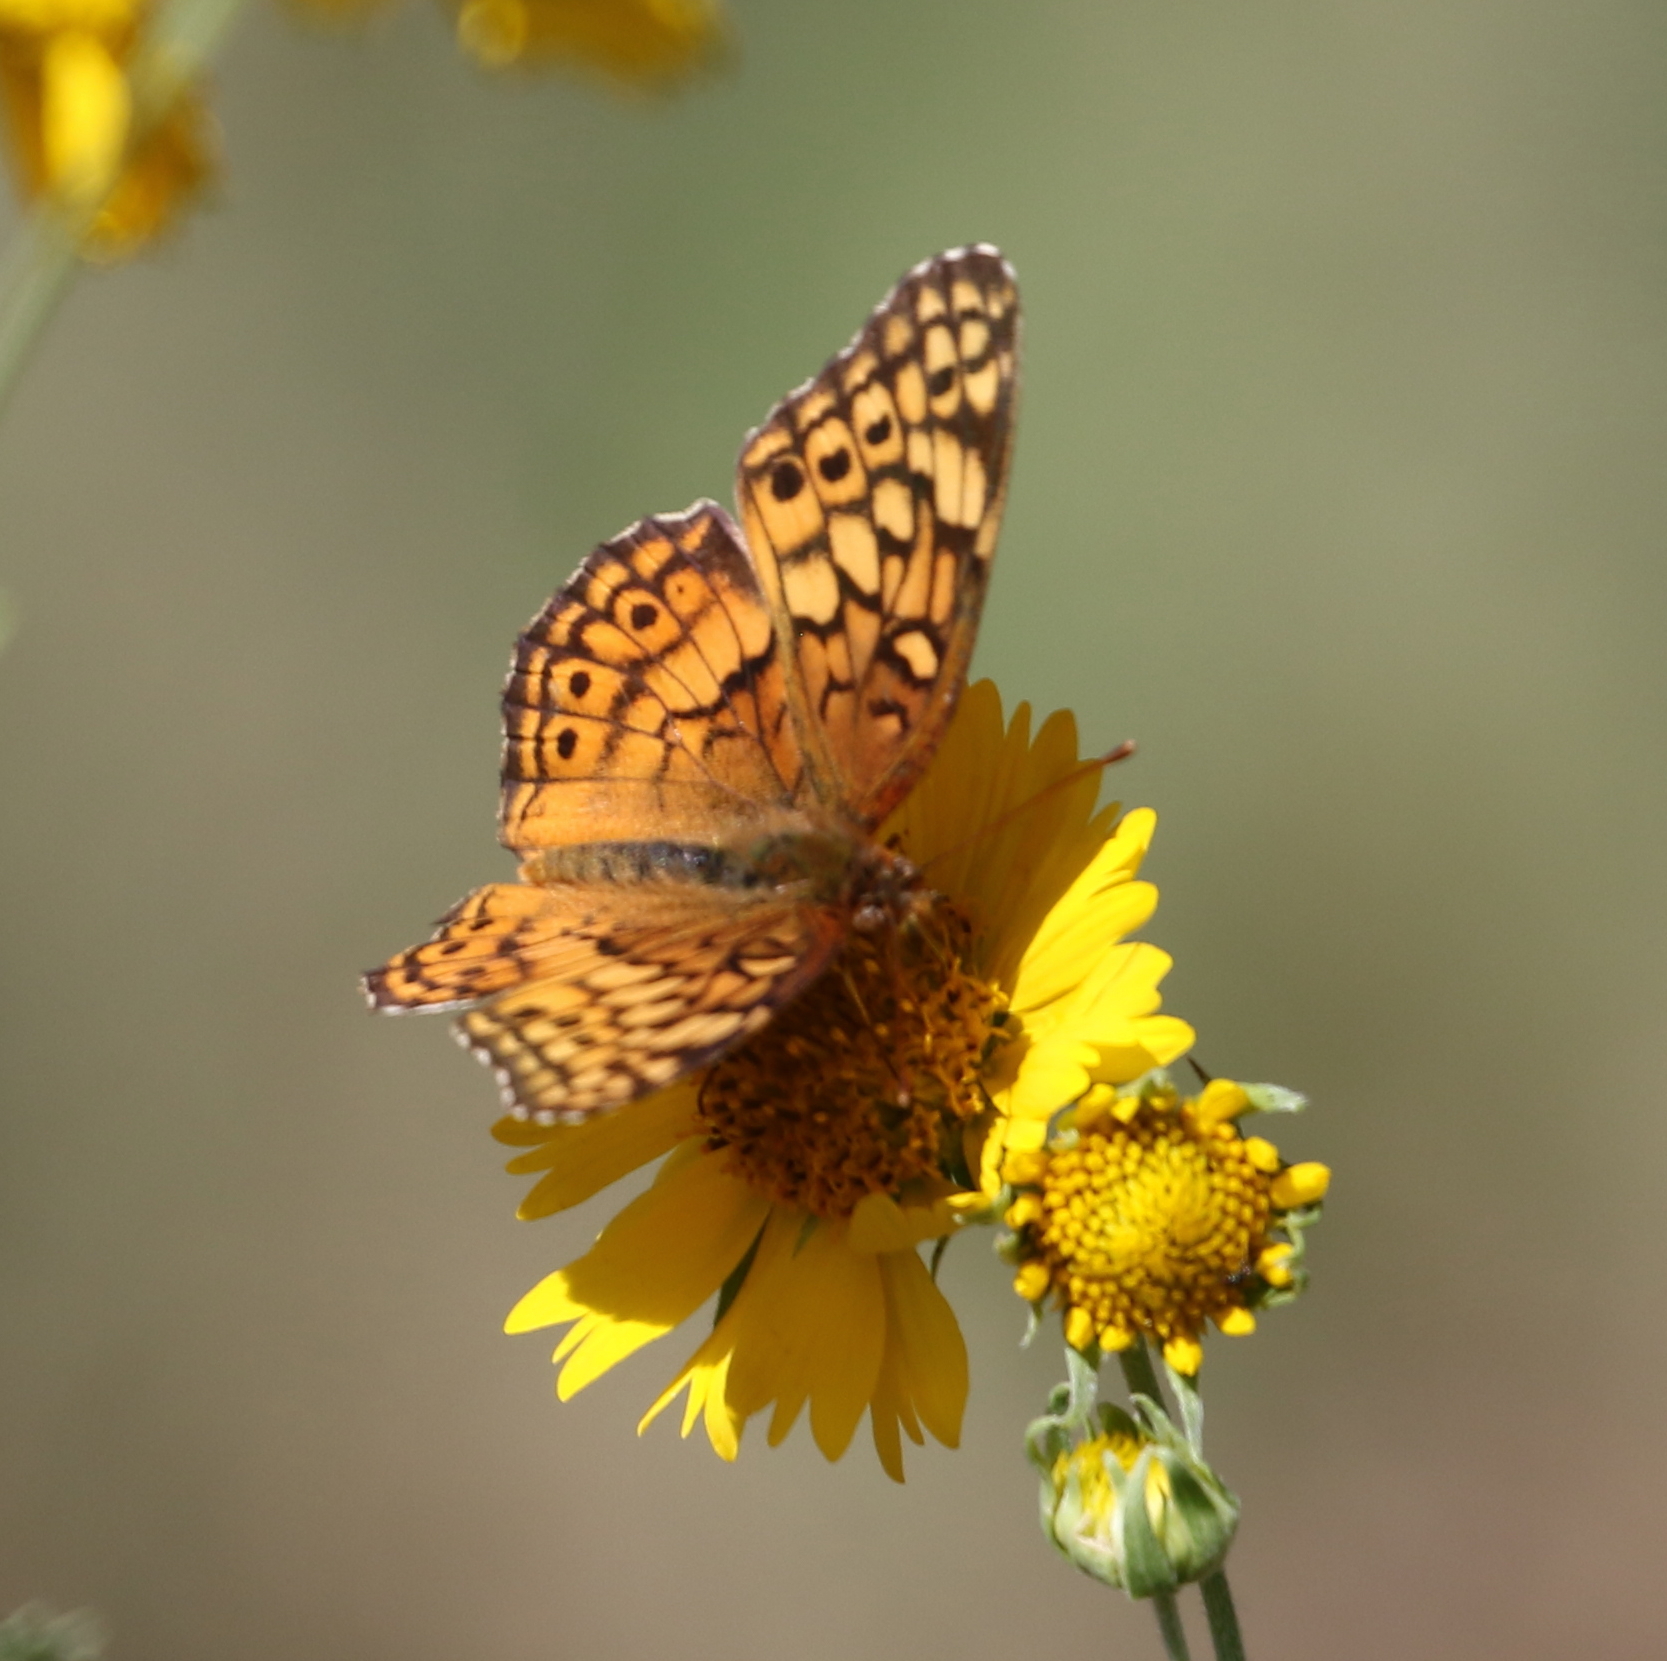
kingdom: Animalia
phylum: Arthropoda
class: Insecta
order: Lepidoptera
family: Nymphalidae
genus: Euptoieta
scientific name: Euptoieta claudia
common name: Variegated fritillary
